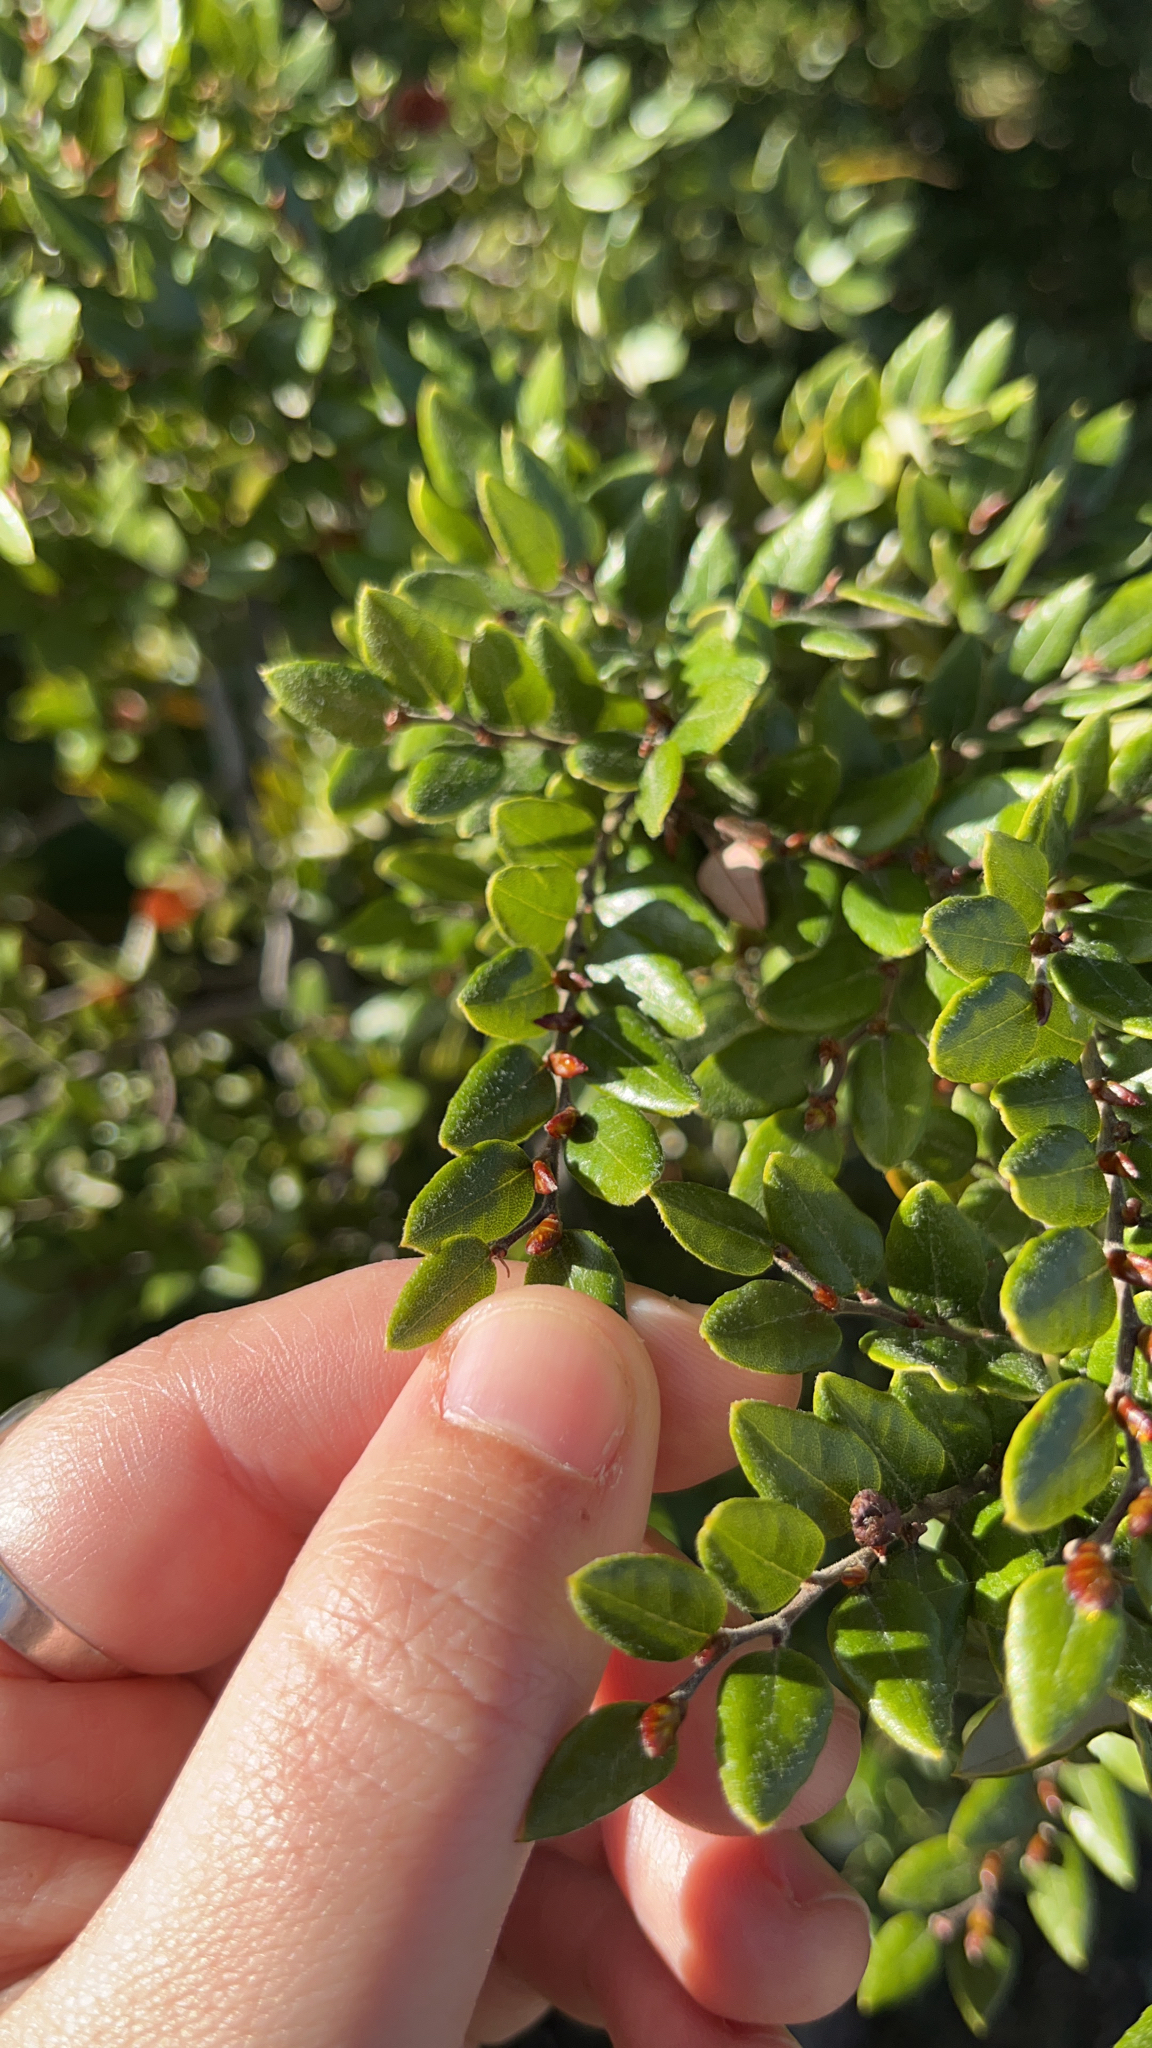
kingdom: Plantae
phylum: Tracheophyta
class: Magnoliopsida
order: Fagales
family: Nothofagaceae
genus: Nothofagus
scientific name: Nothofagus cliffortioides
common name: Mountain beech
